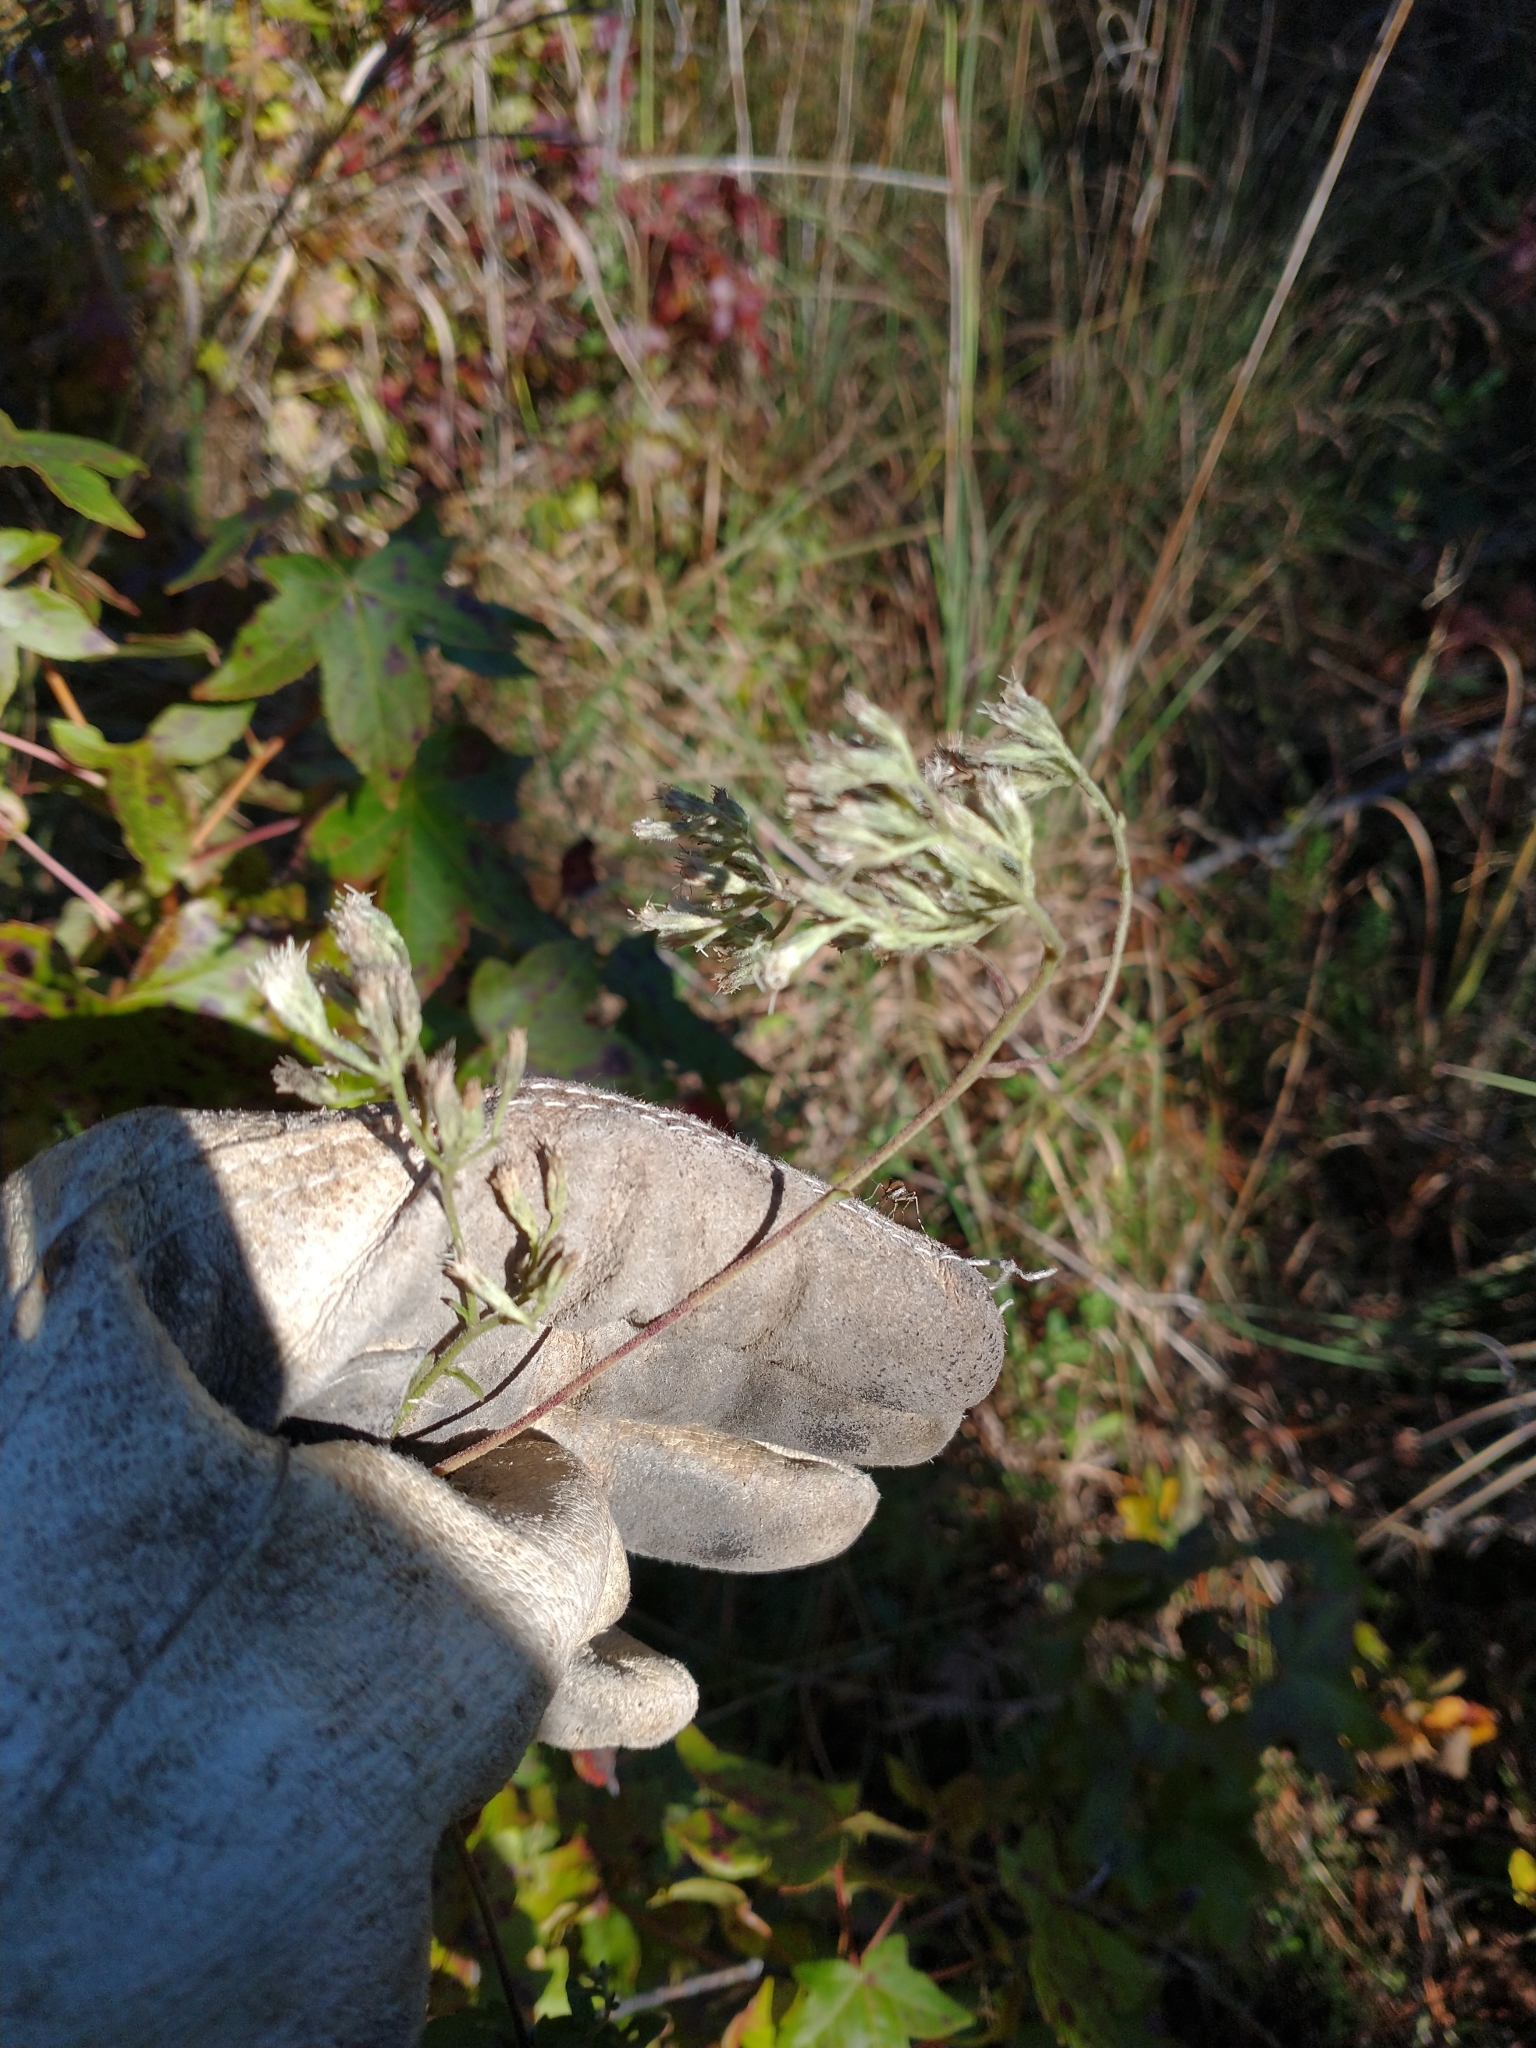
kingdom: Plantae
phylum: Tracheophyta
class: Magnoliopsida
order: Asterales
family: Asteraceae
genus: Eupatorium
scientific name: Eupatorium pilosum
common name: Rough boneset
